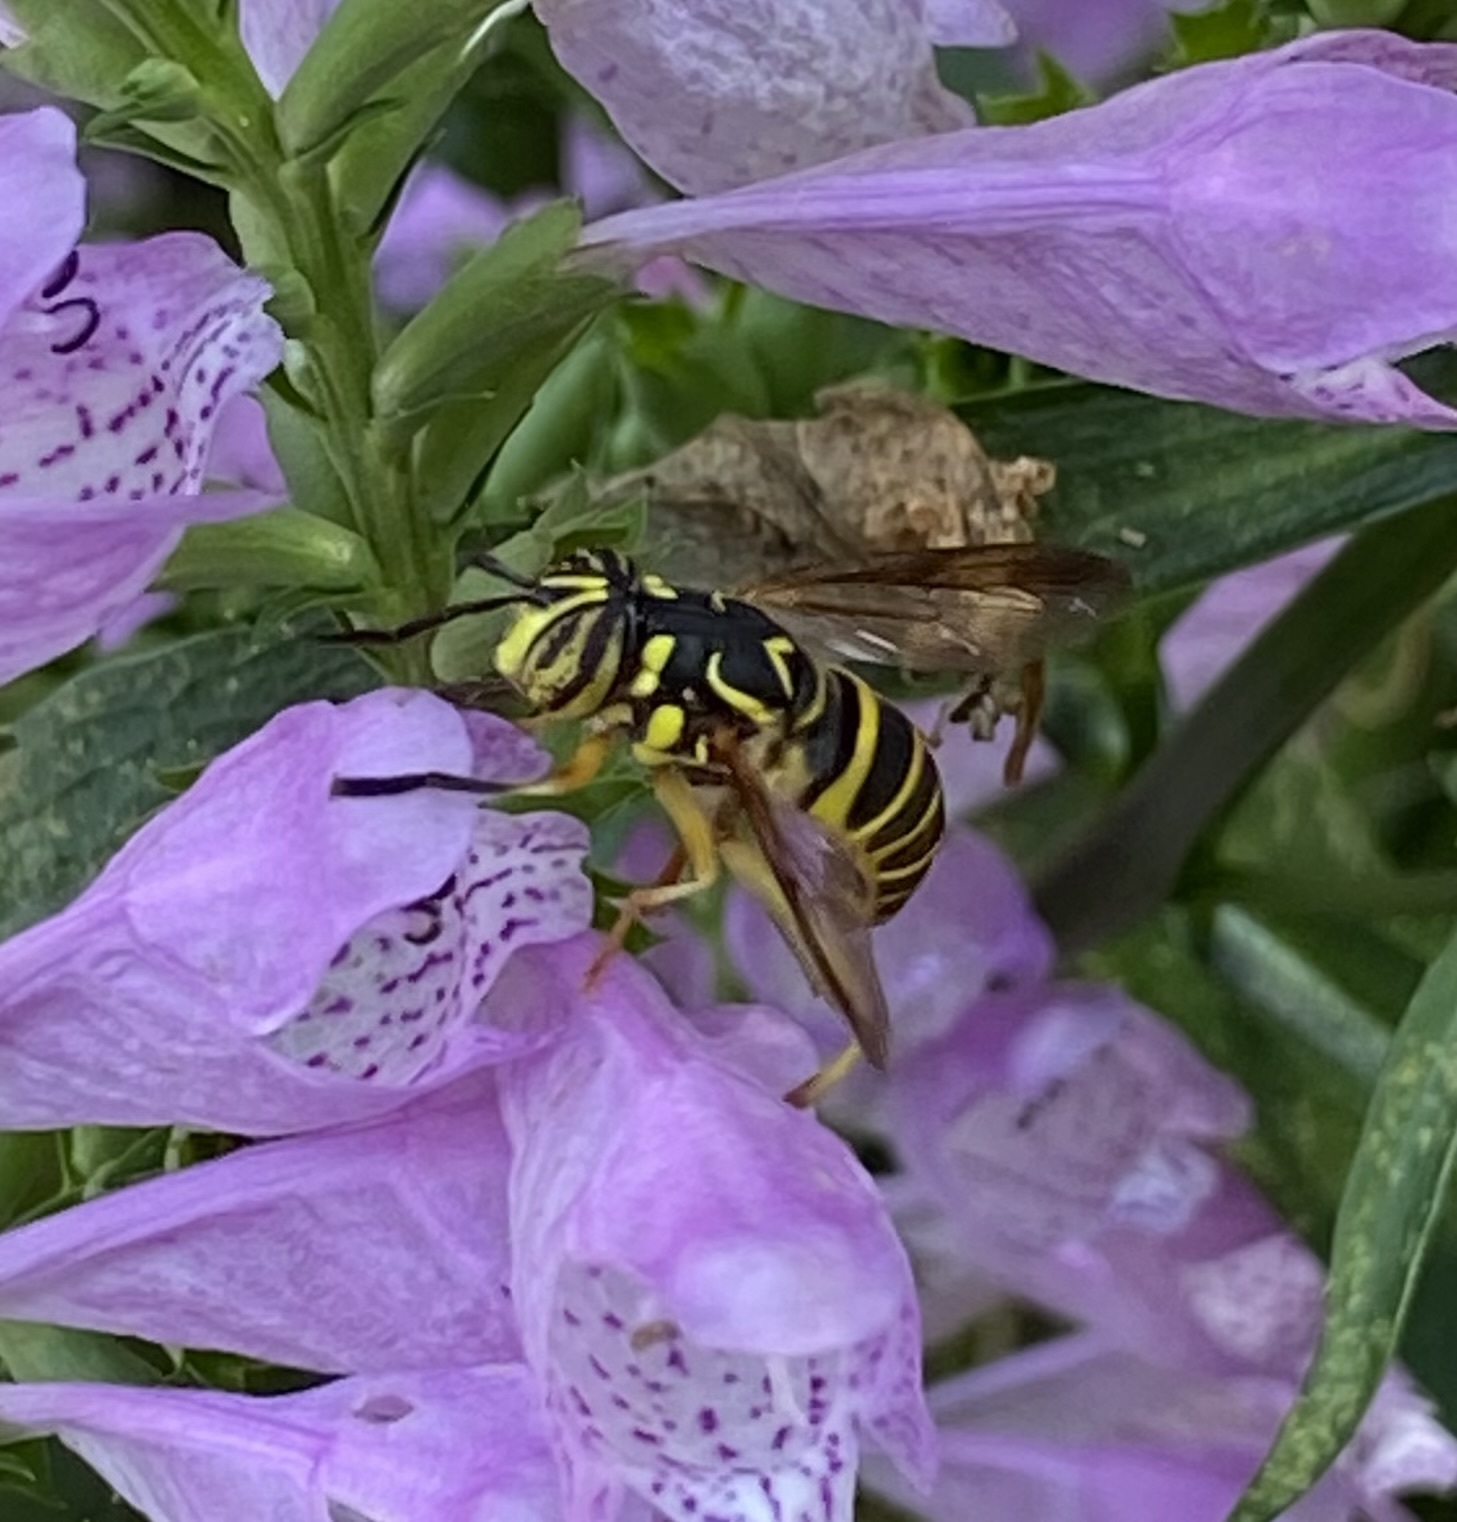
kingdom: Animalia
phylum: Arthropoda
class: Insecta
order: Diptera
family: Syrphidae
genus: Spilomyia
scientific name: Spilomyia longicornis
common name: Eastern hornet fly
